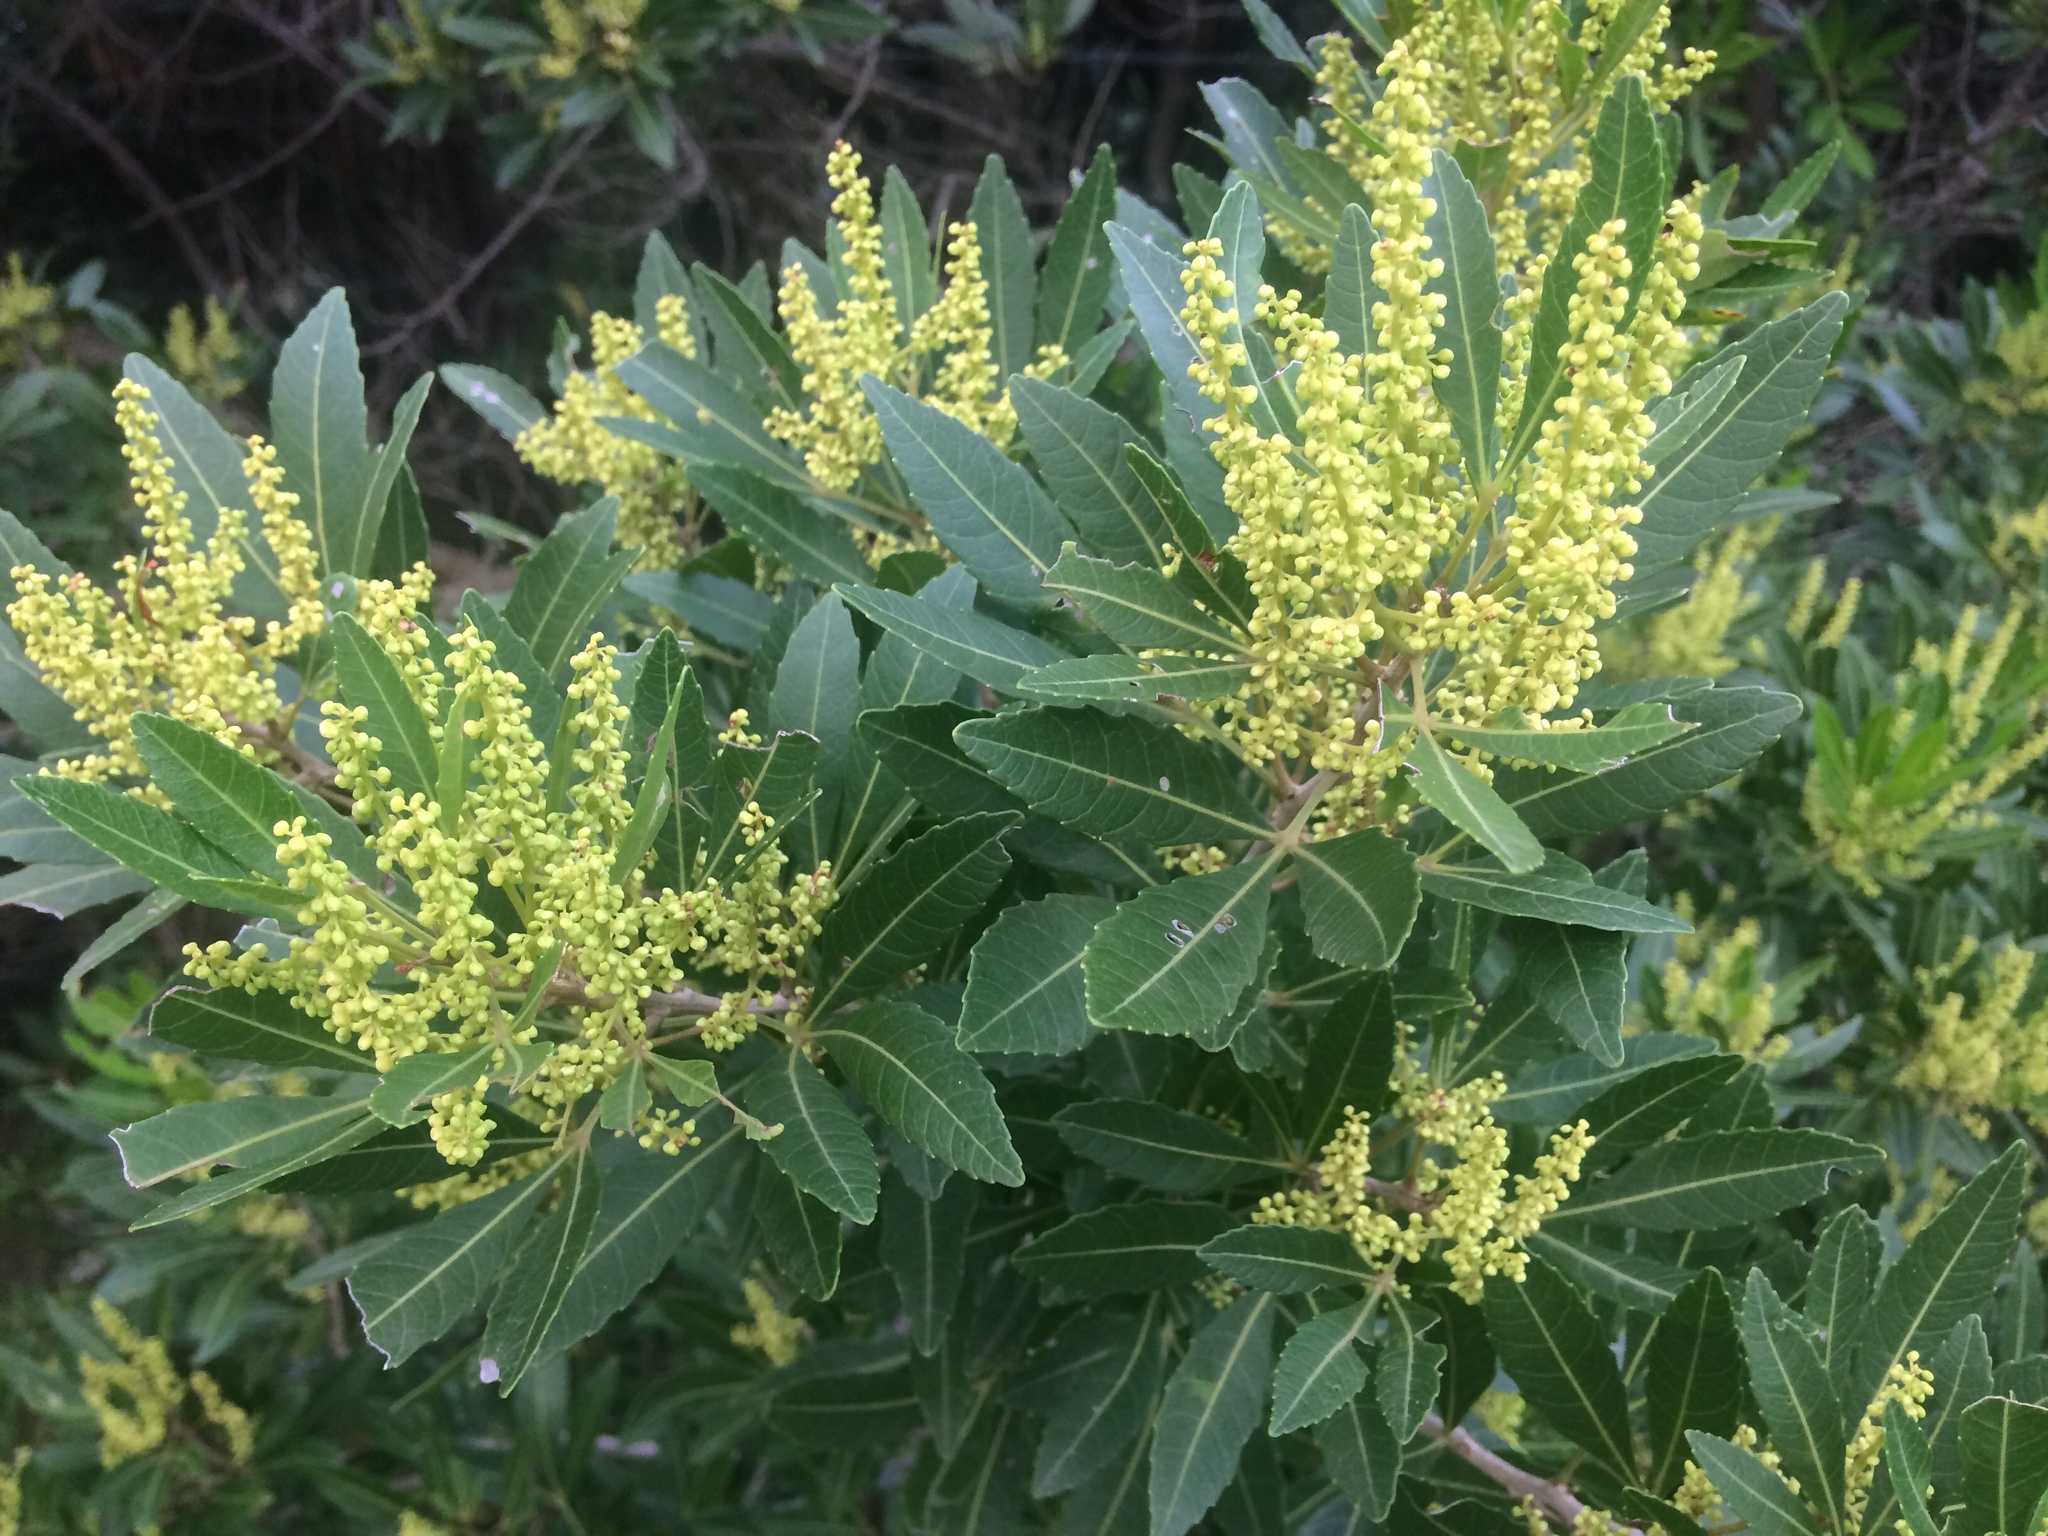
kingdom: Plantae
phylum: Tracheophyta
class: Magnoliopsida
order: Sapindales
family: Sapindaceae
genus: Allophylus
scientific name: Allophylus natalensis
